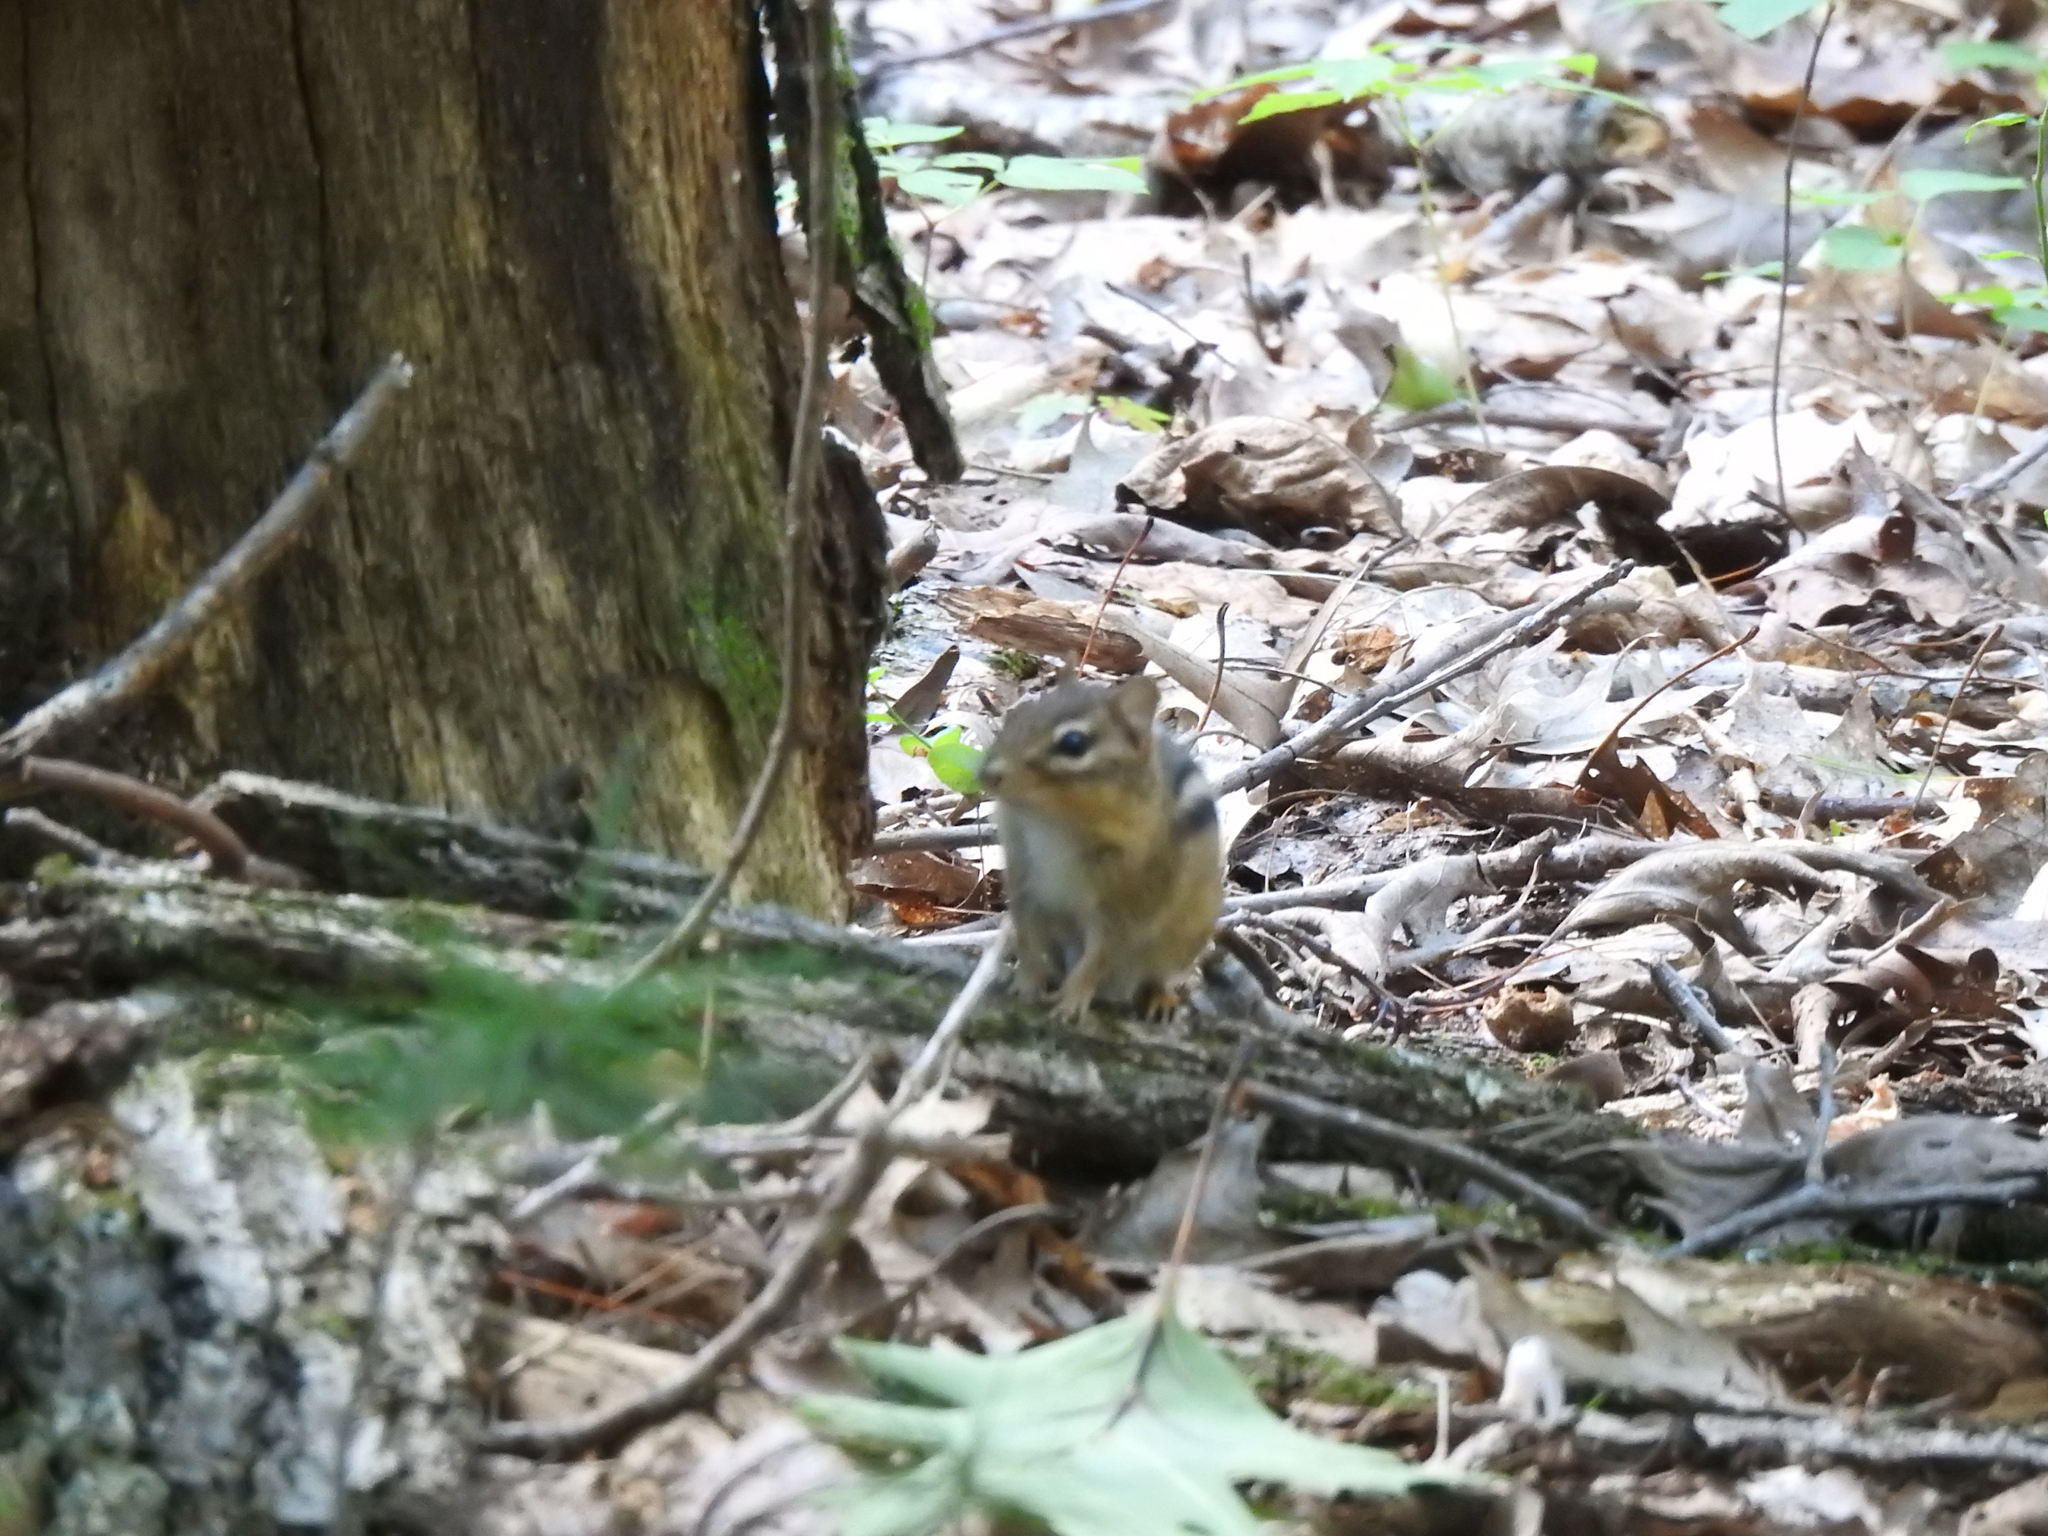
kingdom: Animalia
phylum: Chordata
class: Mammalia
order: Rodentia
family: Sciuridae
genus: Tamias
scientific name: Tamias striatus
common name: Eastern chipmunk
